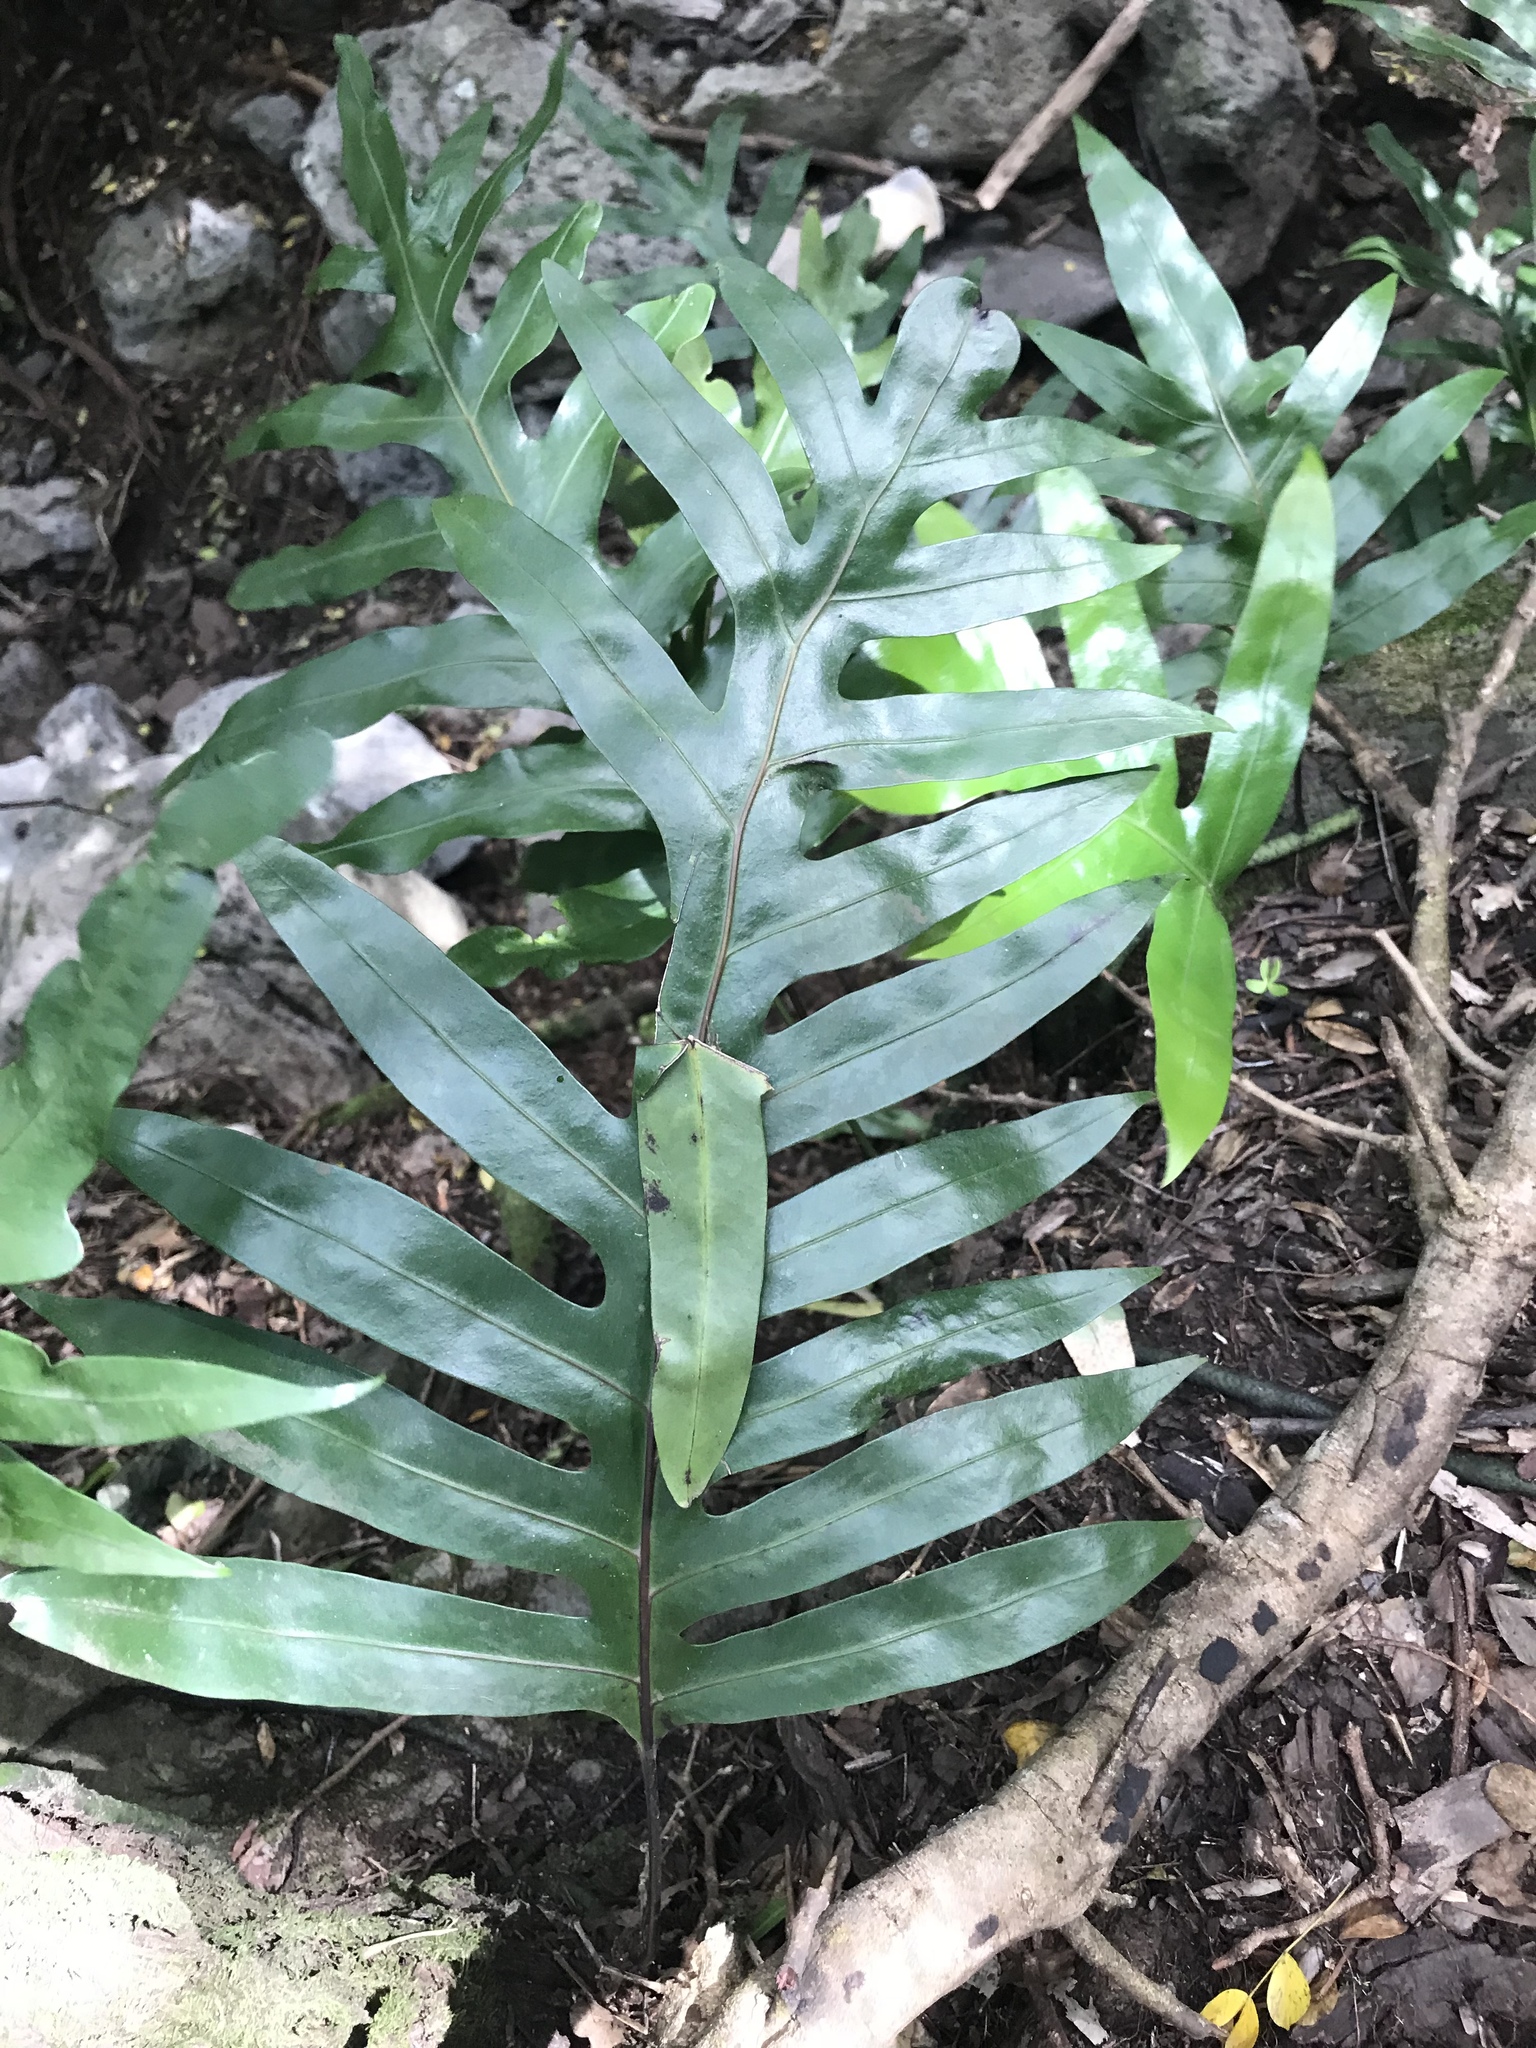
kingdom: Plantae
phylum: Tracheophyta
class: Polypodiopsida
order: Polypodiales
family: Polypodiaceae
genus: Microsorum
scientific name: Microsorum grossum
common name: Musk fern
